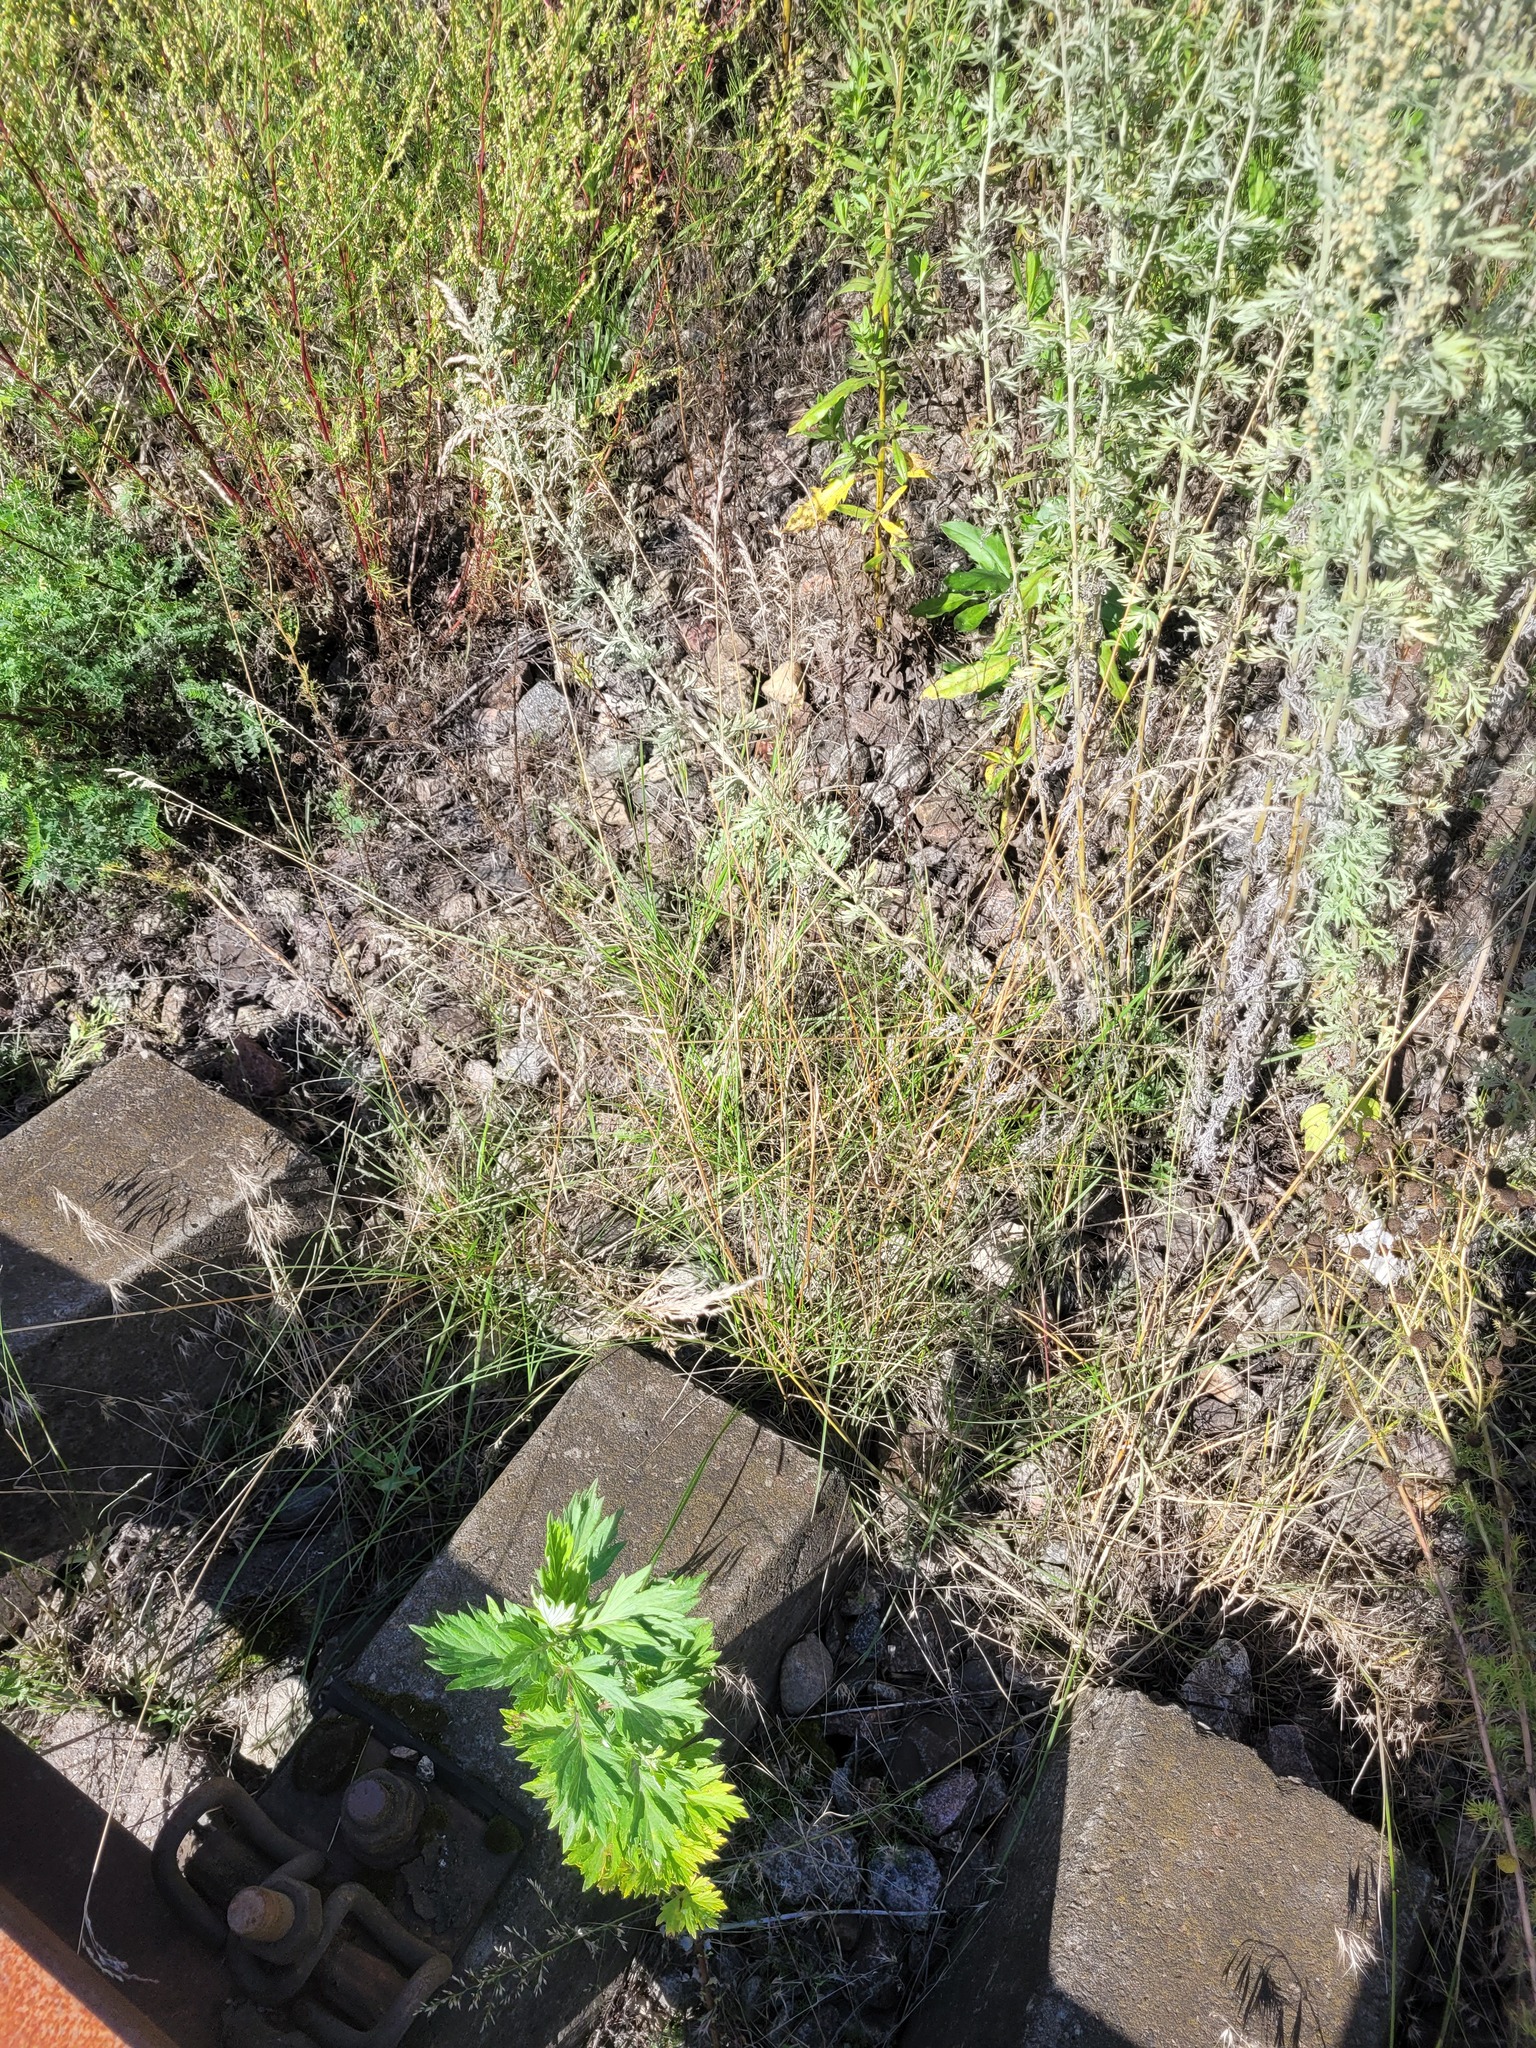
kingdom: Plantae
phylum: Tracheophyta
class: Liliopsida
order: Poales
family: Poaceae
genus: Poa
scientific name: Poa angustifolia
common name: Narrow-leaved meadow-grass
